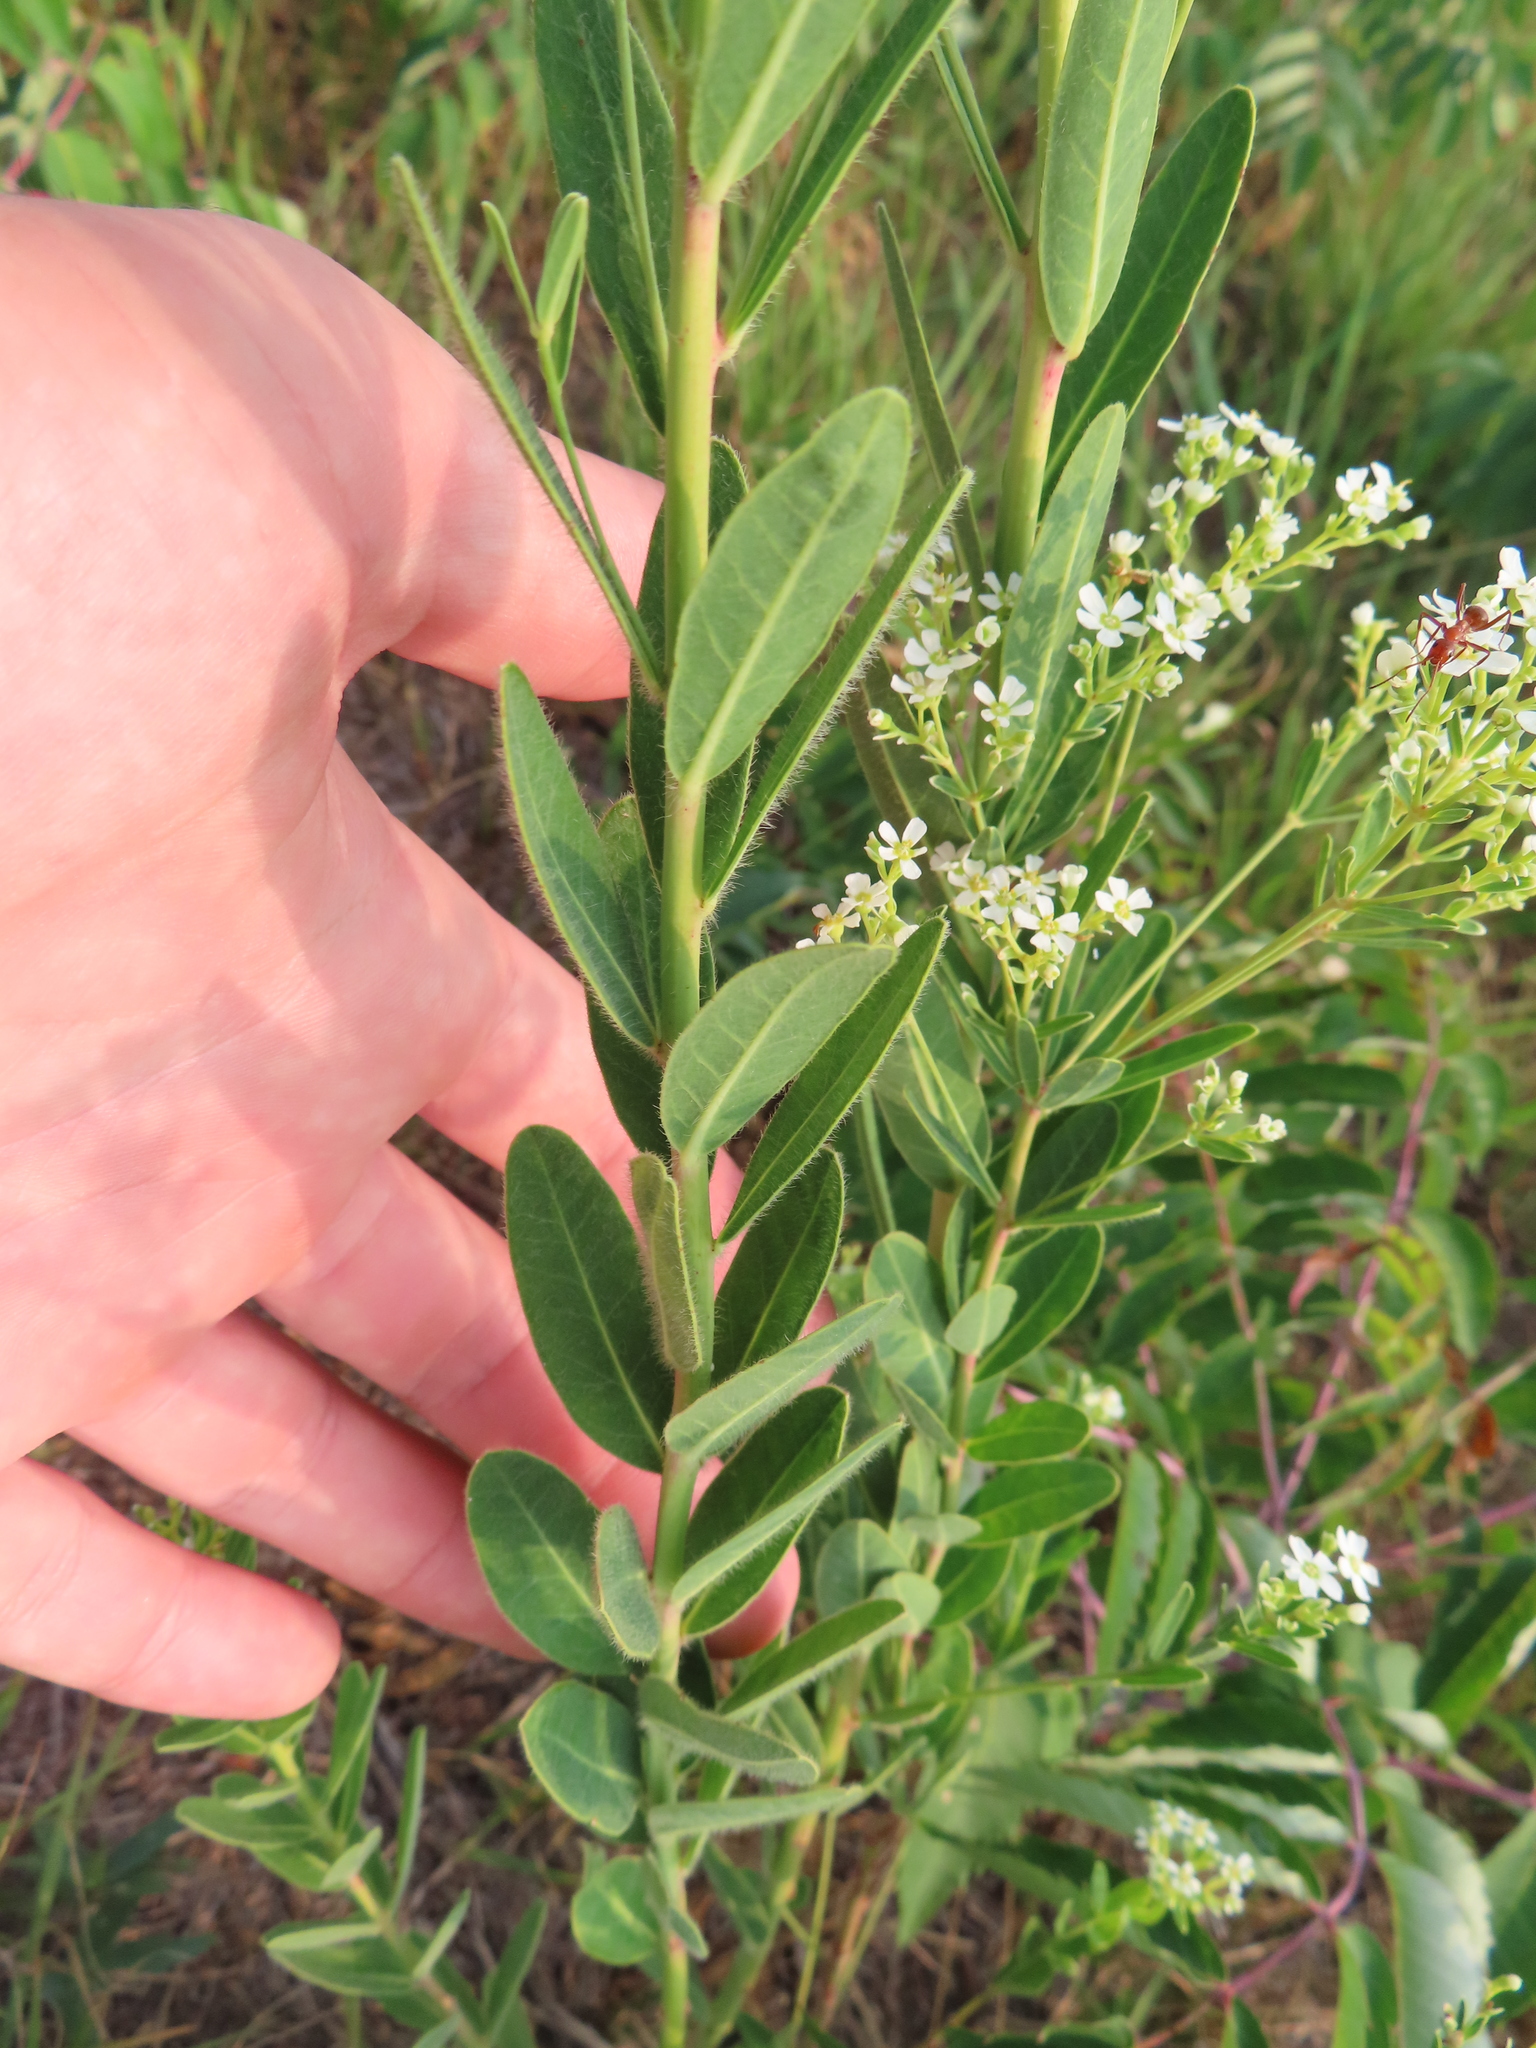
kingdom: Plantae
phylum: Tracheophyta
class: Magnoliopsida
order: Malpighiales
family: Euphorbiaceae
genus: Euphorbia
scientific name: Euphorbia corollata
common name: Flowering spurge
